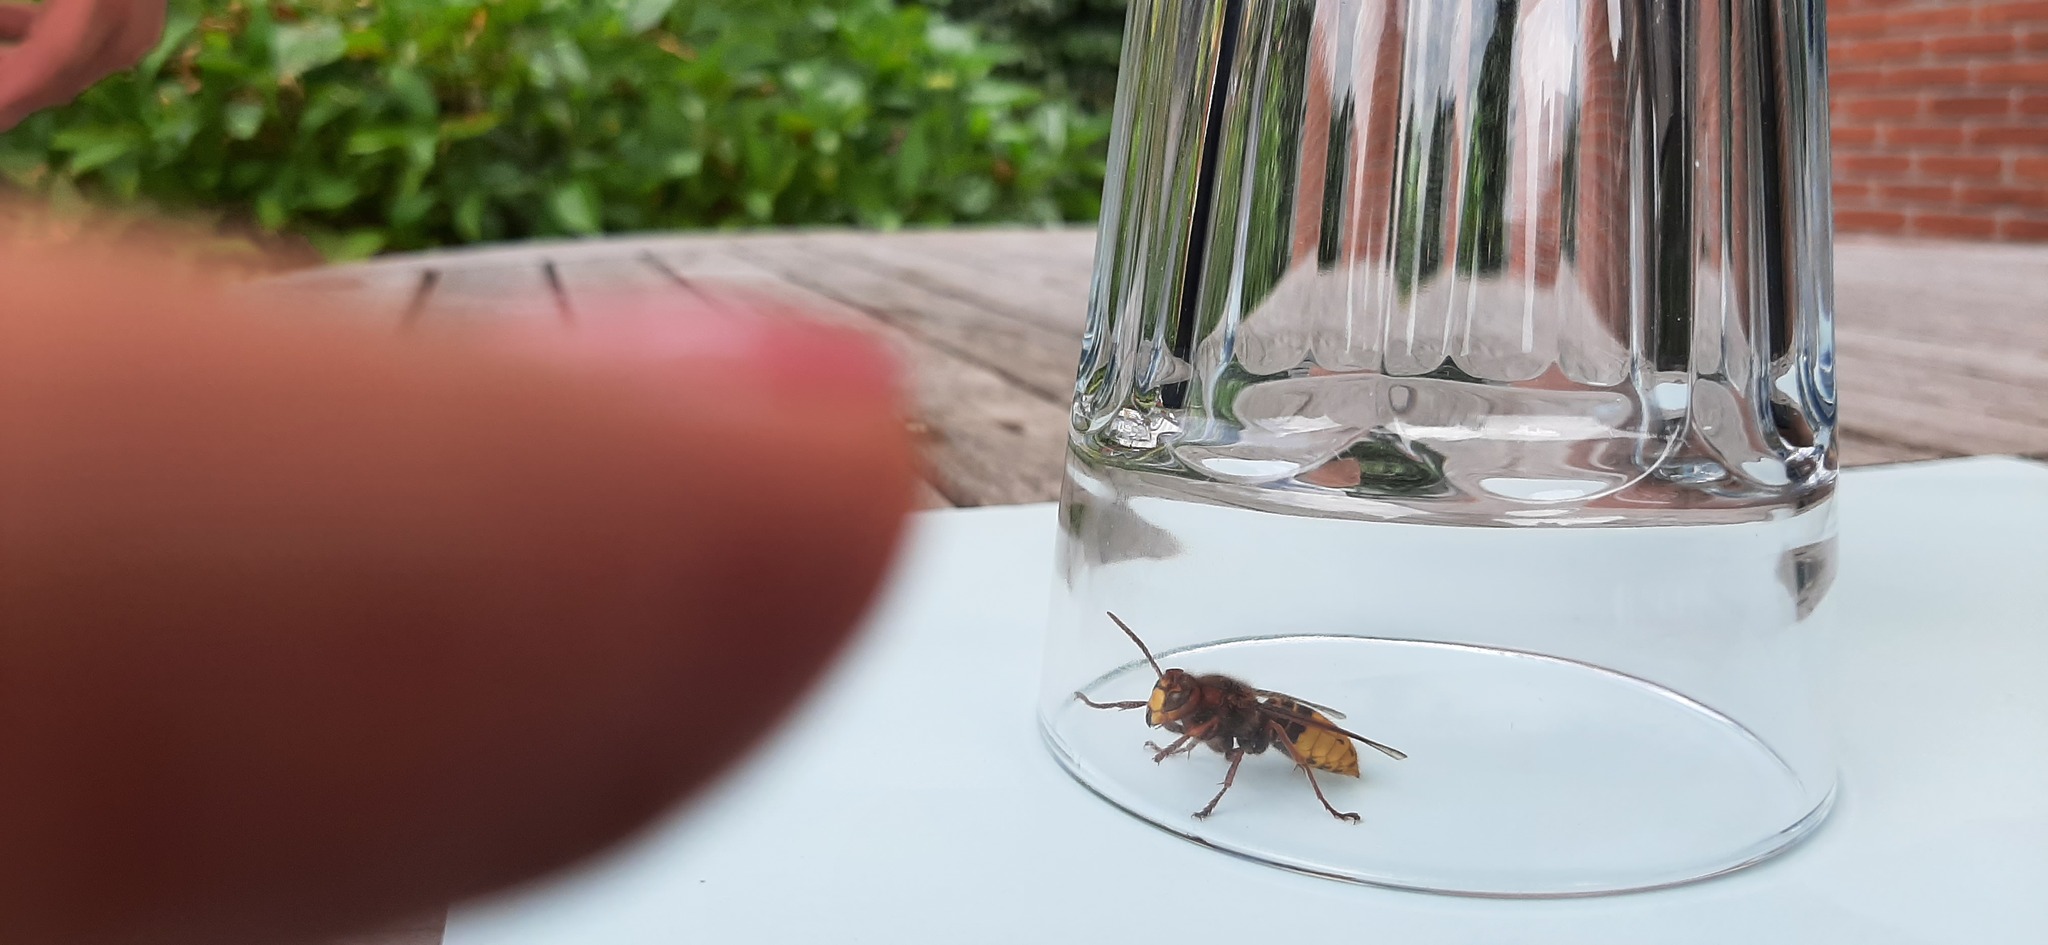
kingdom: Animalia
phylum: Arthropoda
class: Insecta
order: Hymenoptera
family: Vespidae
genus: Vespa
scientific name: Vespa crabro
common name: Hornet
